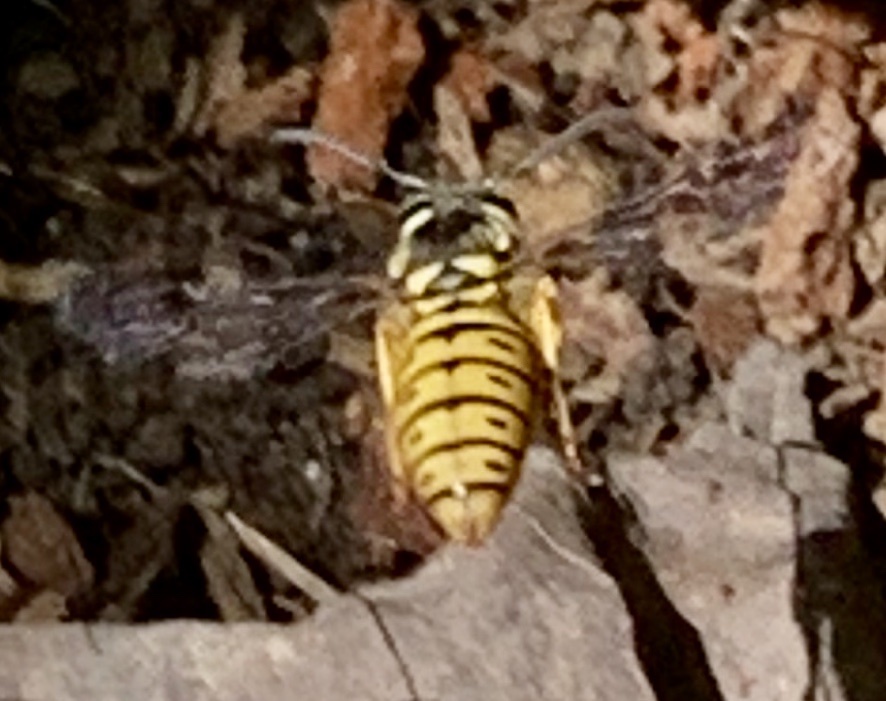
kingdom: Animalia
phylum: Arthropoda
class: Insecta
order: Hymenoptera
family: Vespidae
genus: Vespula
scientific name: Vespula maculifrons
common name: Eastern yellowjacket
